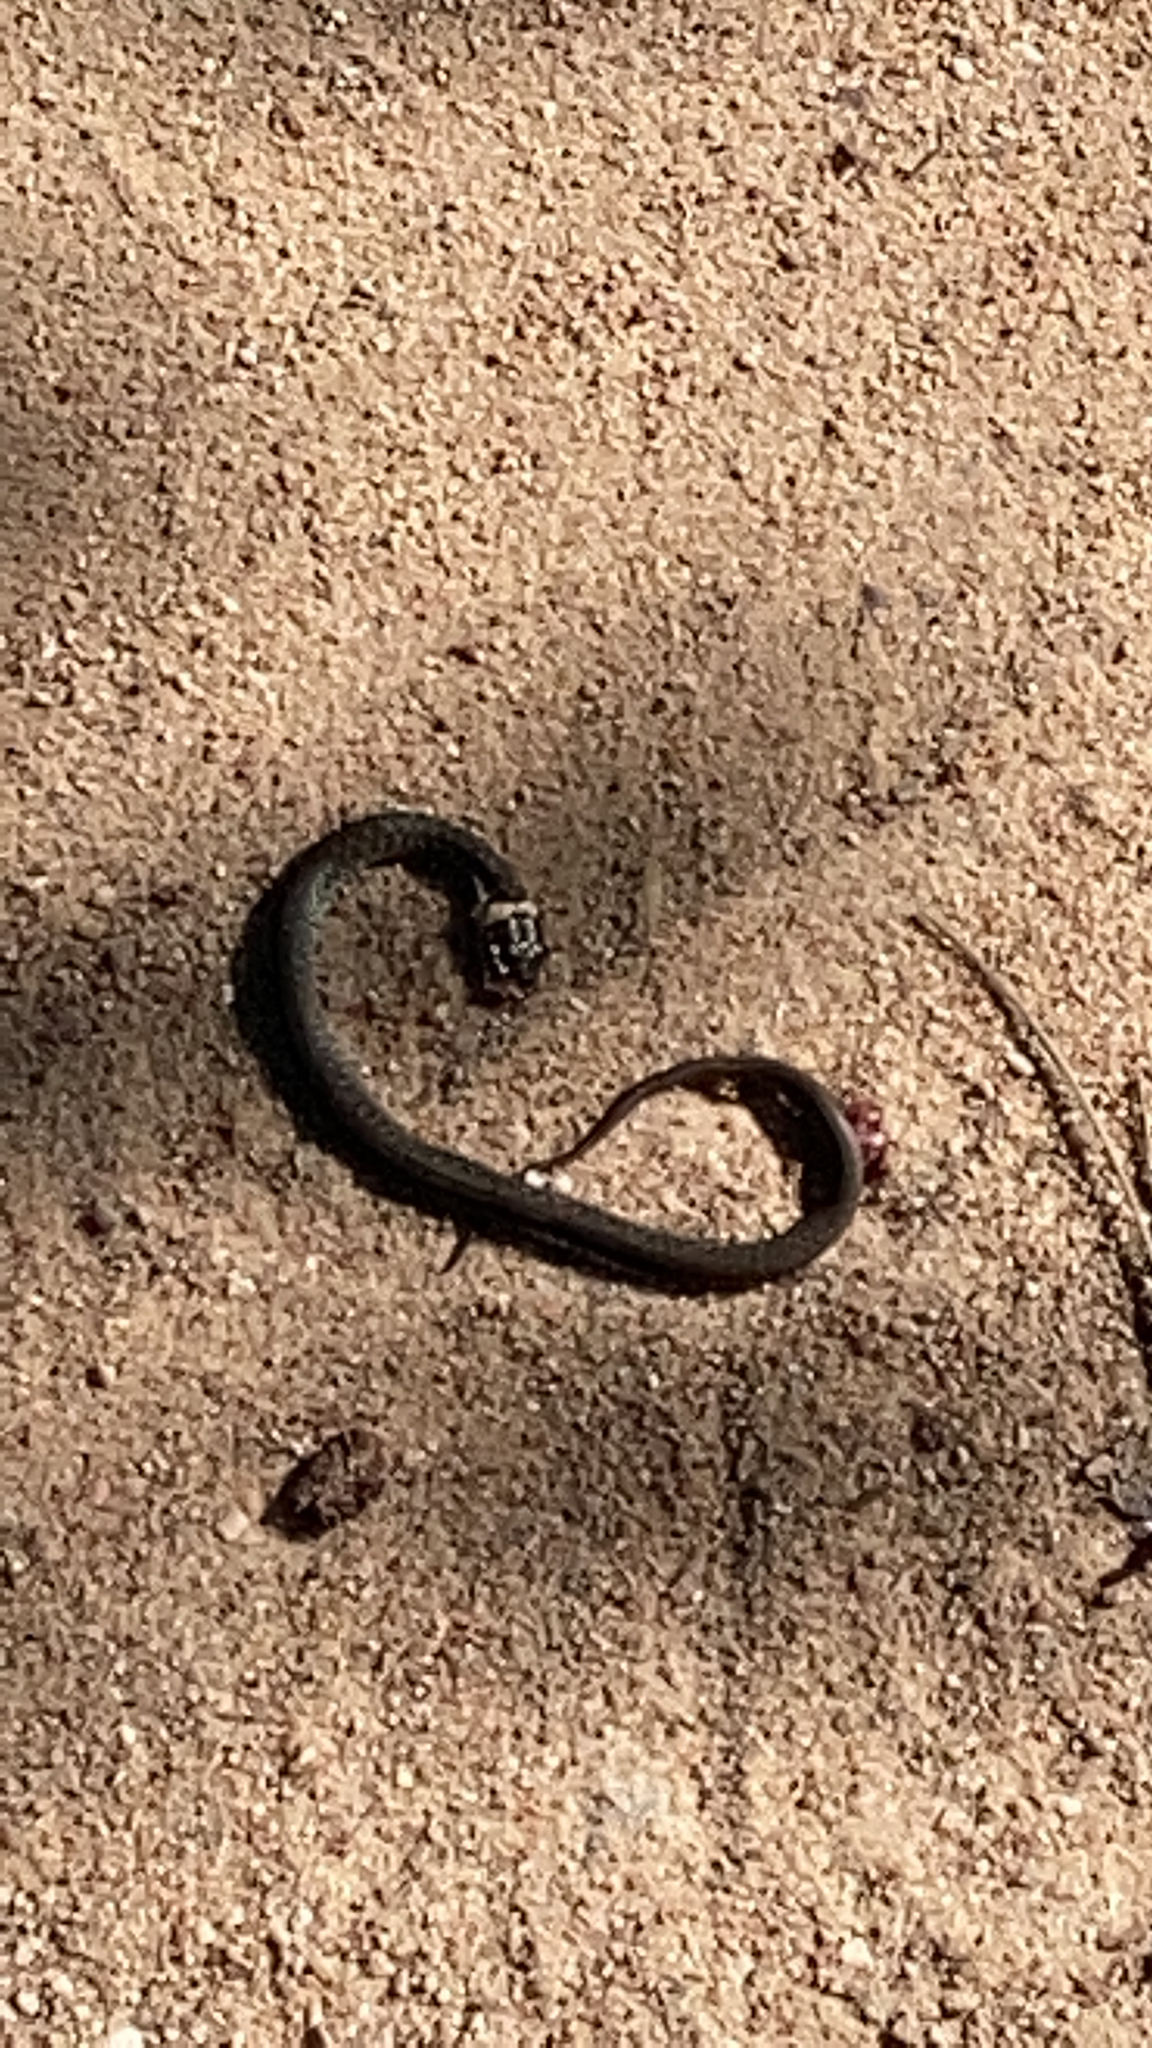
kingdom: Animalia
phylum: Chordata
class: Squamata
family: Colubridae
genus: Natrix
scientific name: Natrix natrix
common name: Grass snake
